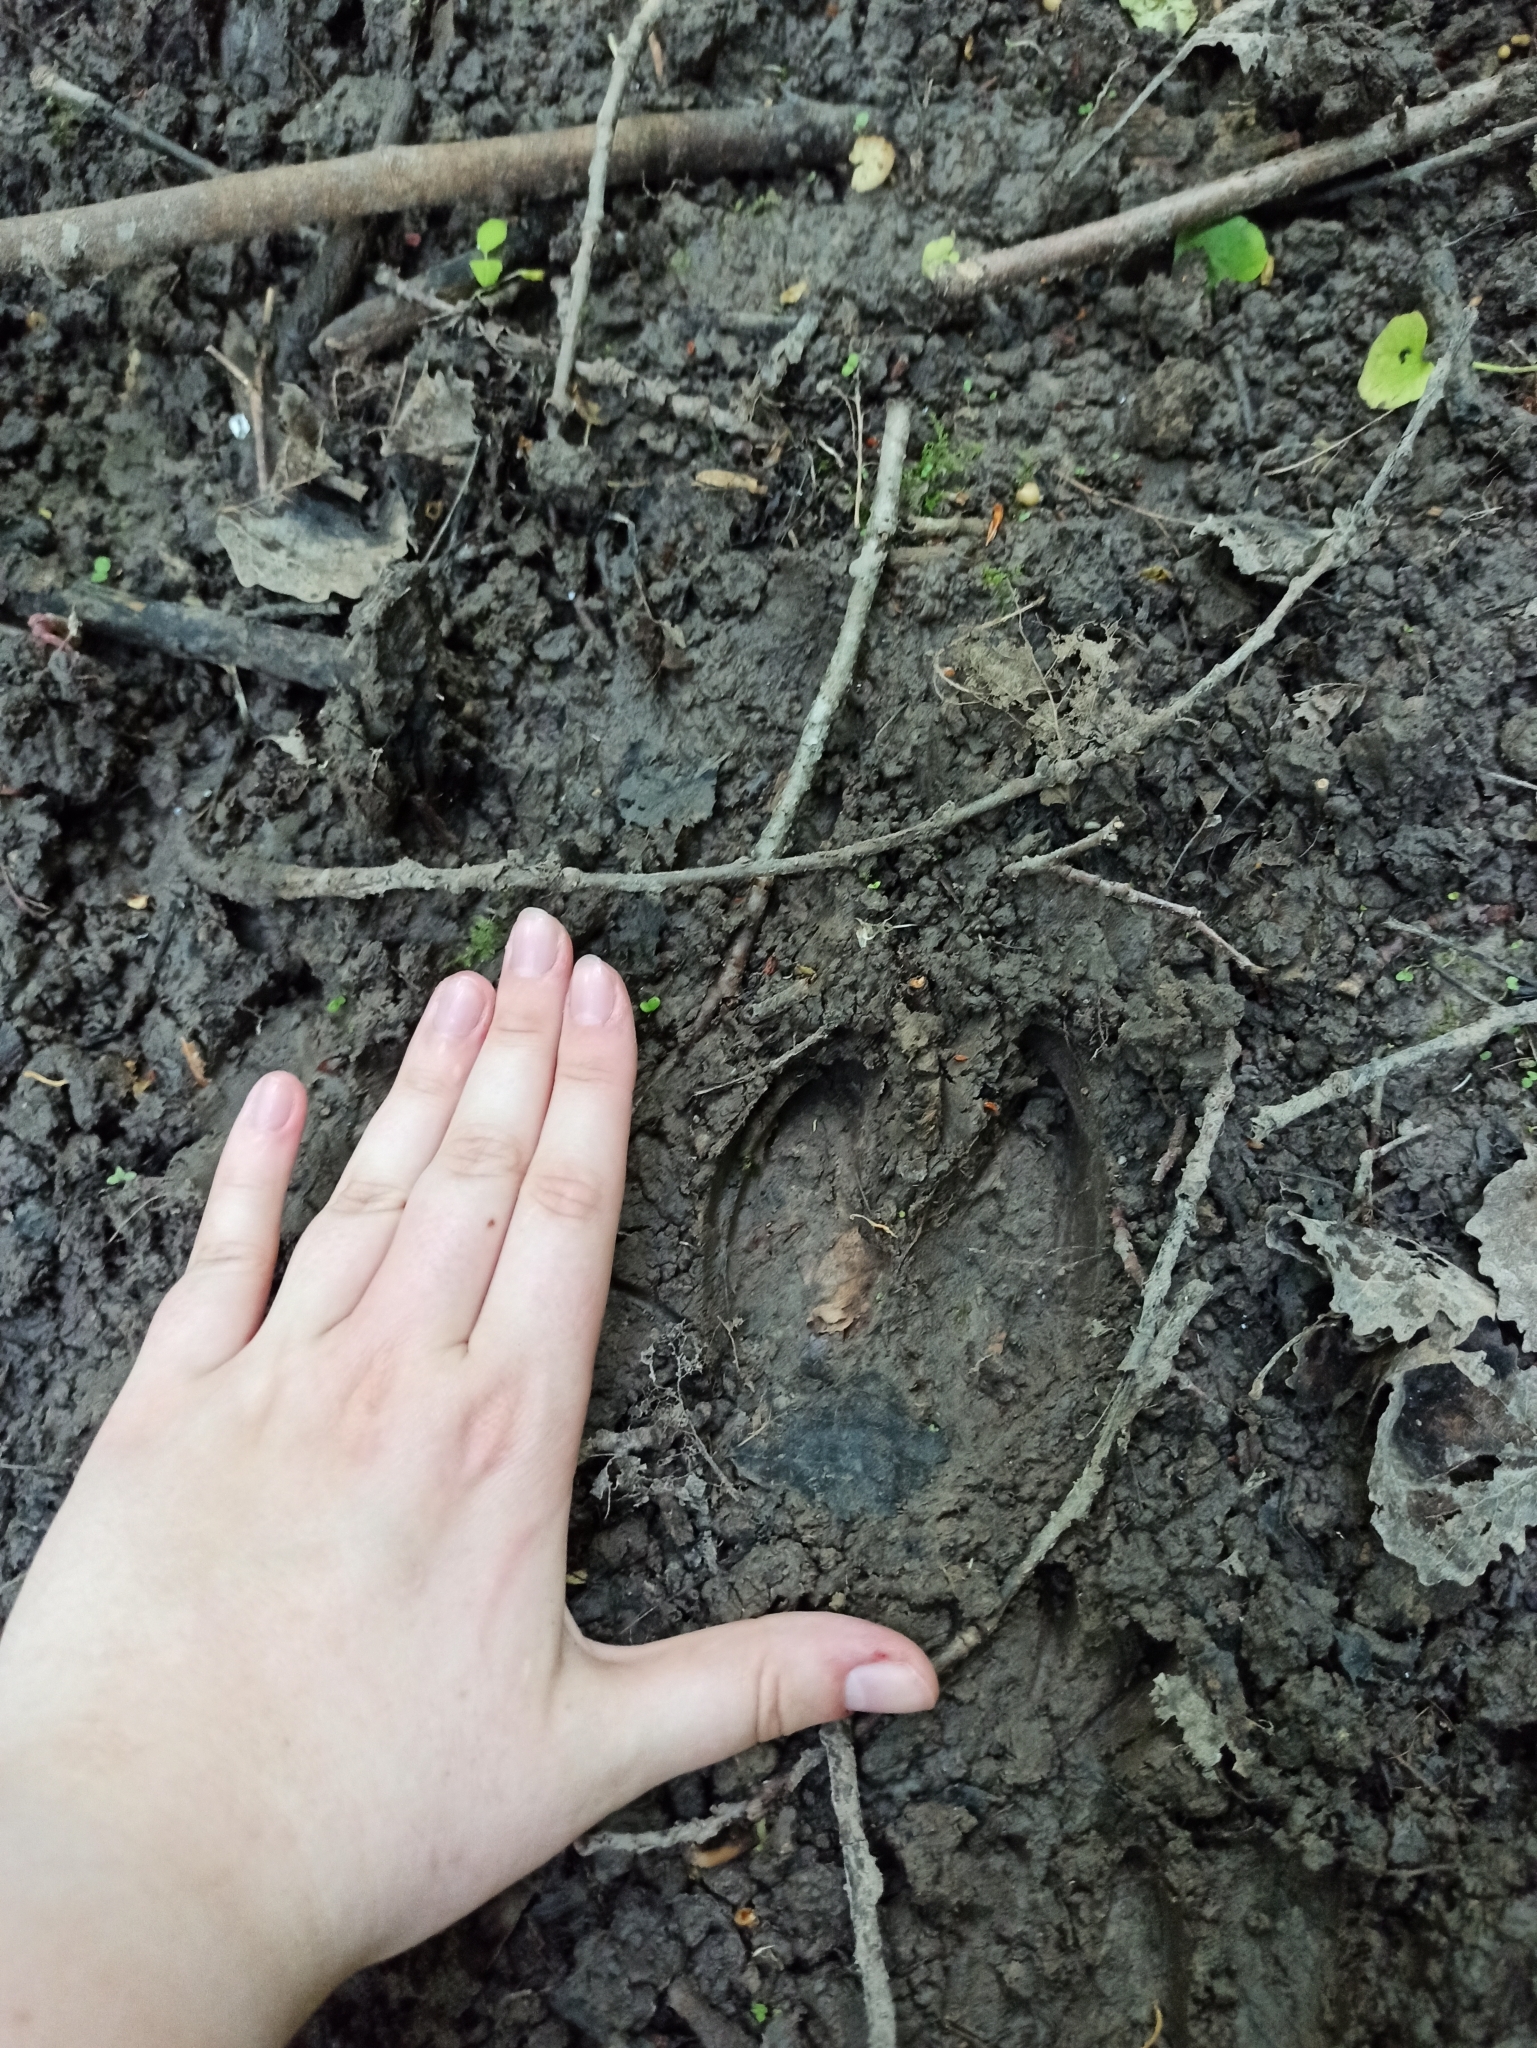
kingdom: Animalia
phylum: Chordata
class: Mammalia
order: Artiodactyla
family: Suidae
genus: Sus
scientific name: Sus scrofa
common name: Wild boar
